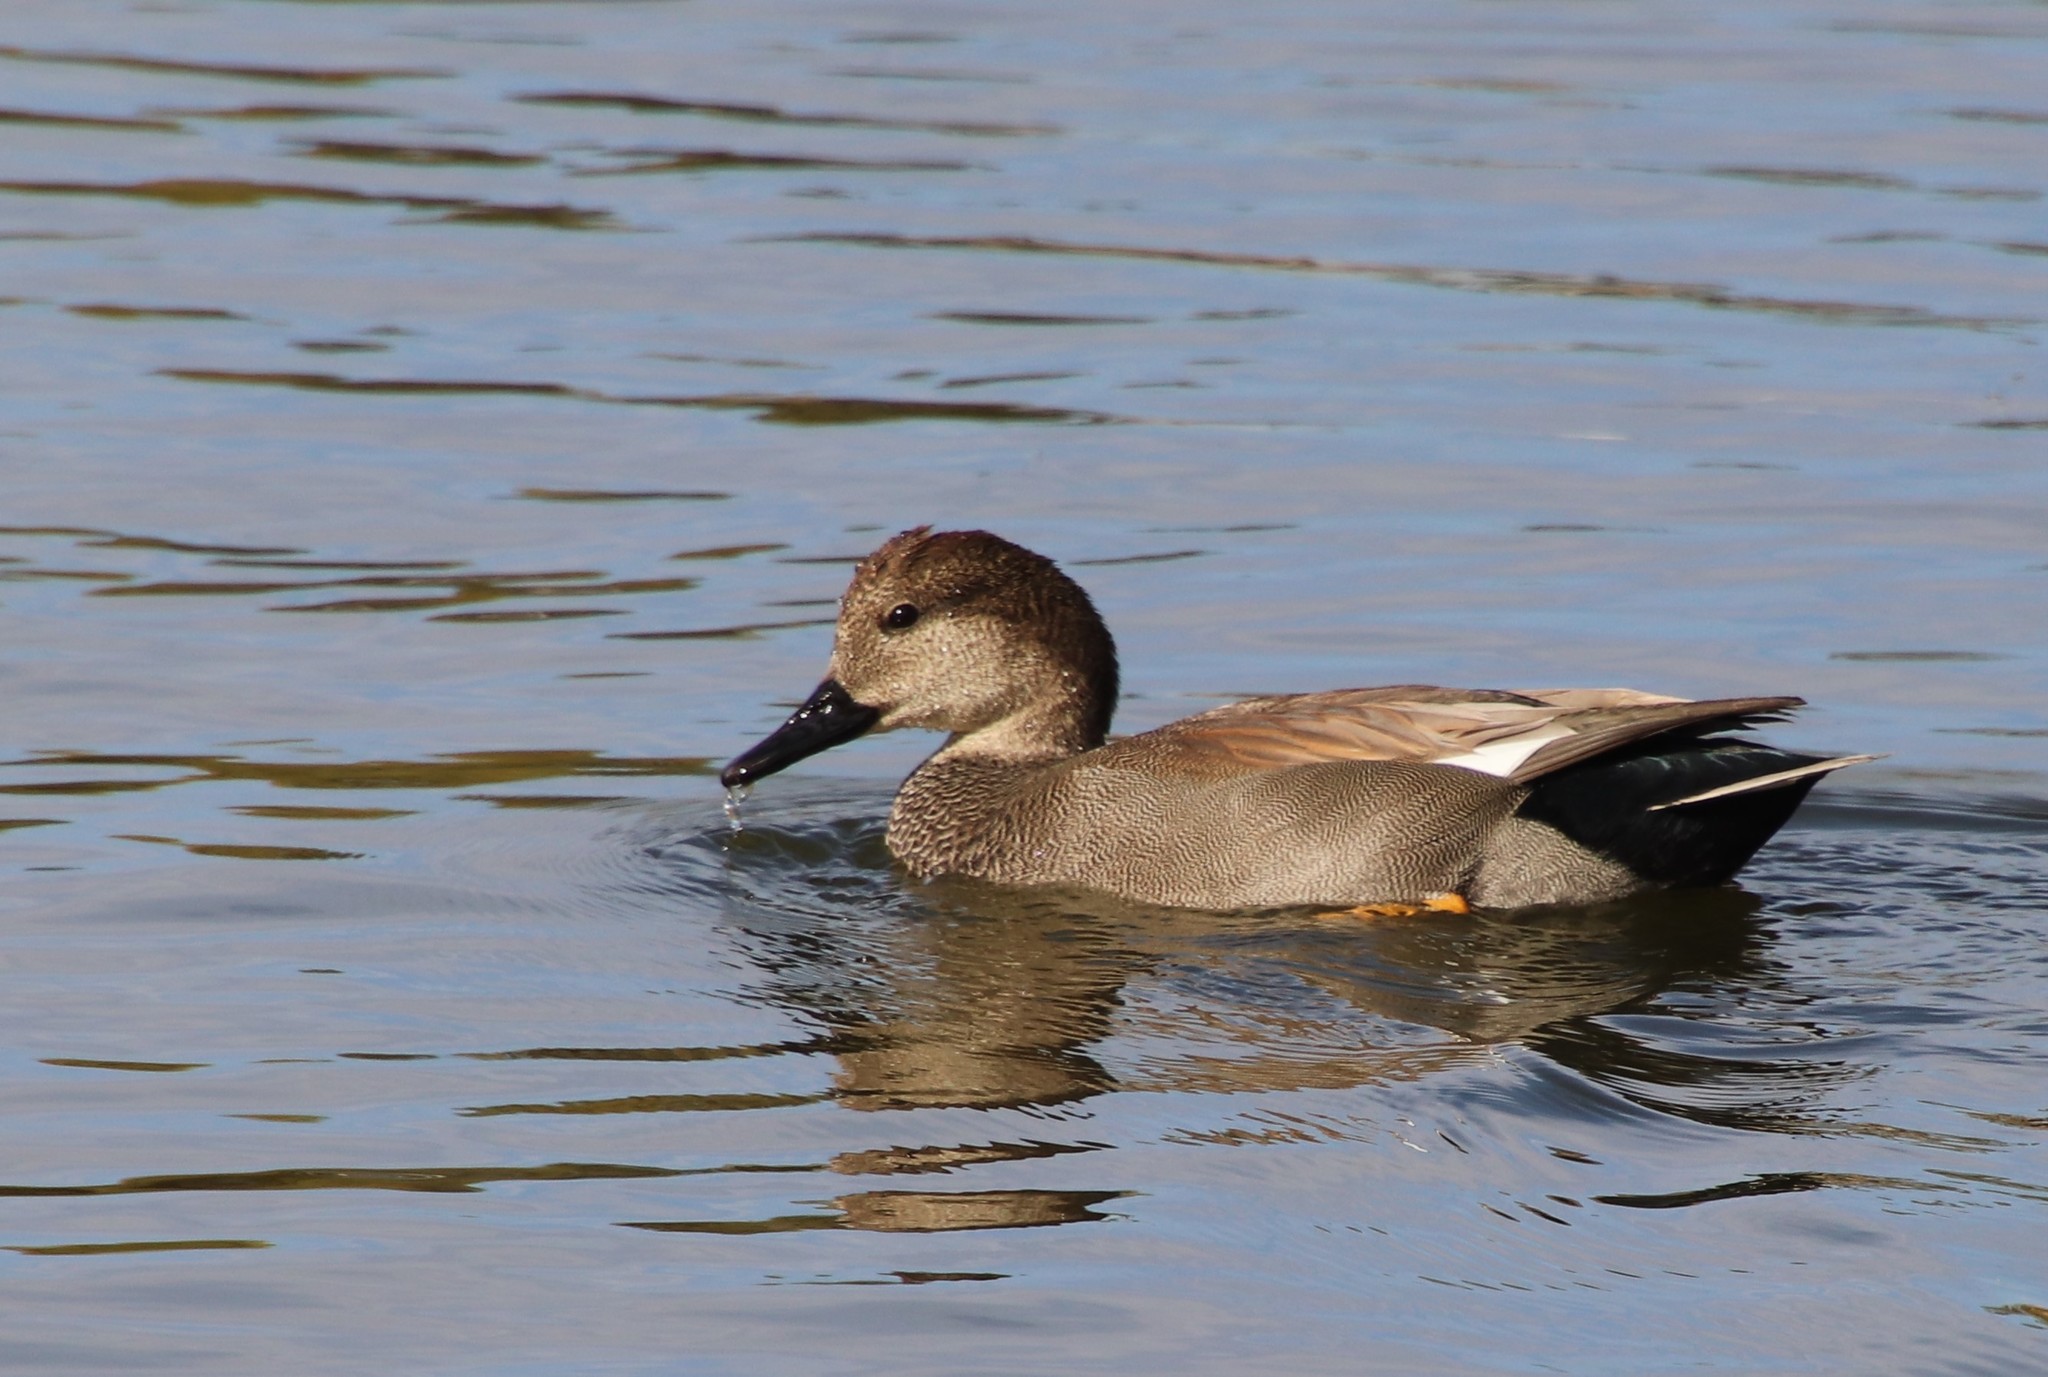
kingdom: Animalia
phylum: Chordata
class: Aves
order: Anseriformes
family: Anatidae
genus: Mareca
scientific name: Mareca strepera
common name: Gadwall
